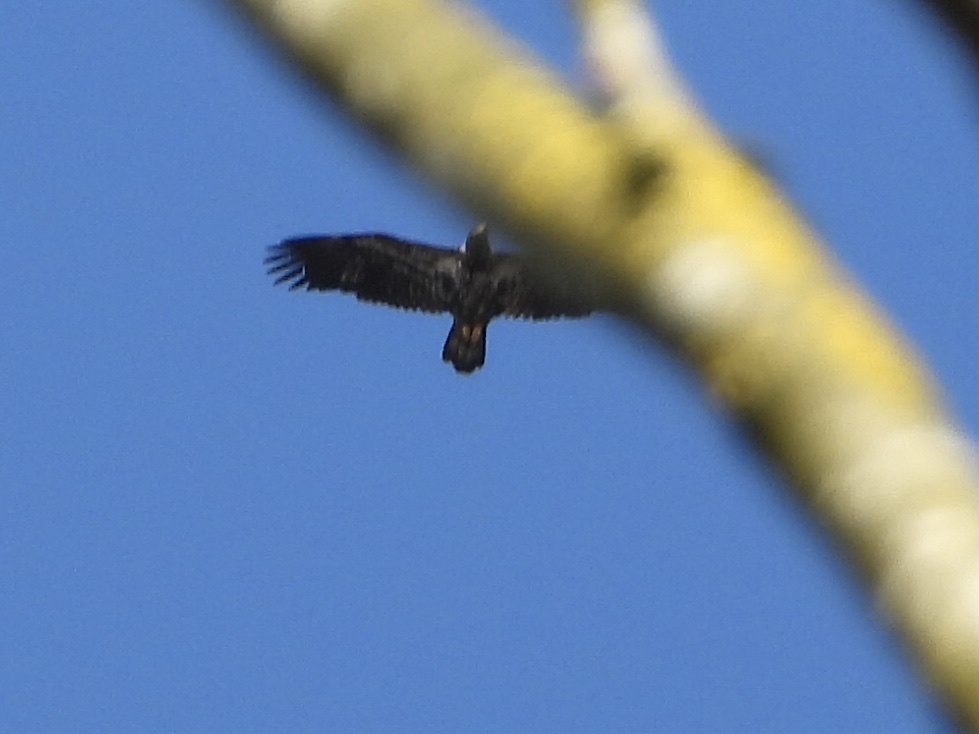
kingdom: Animalia
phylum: Chordata
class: Aves
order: Accipitriformes
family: Accipitridae
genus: Haliaeetus
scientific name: Haliaeetus leucocephalus
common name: Bald eagle
